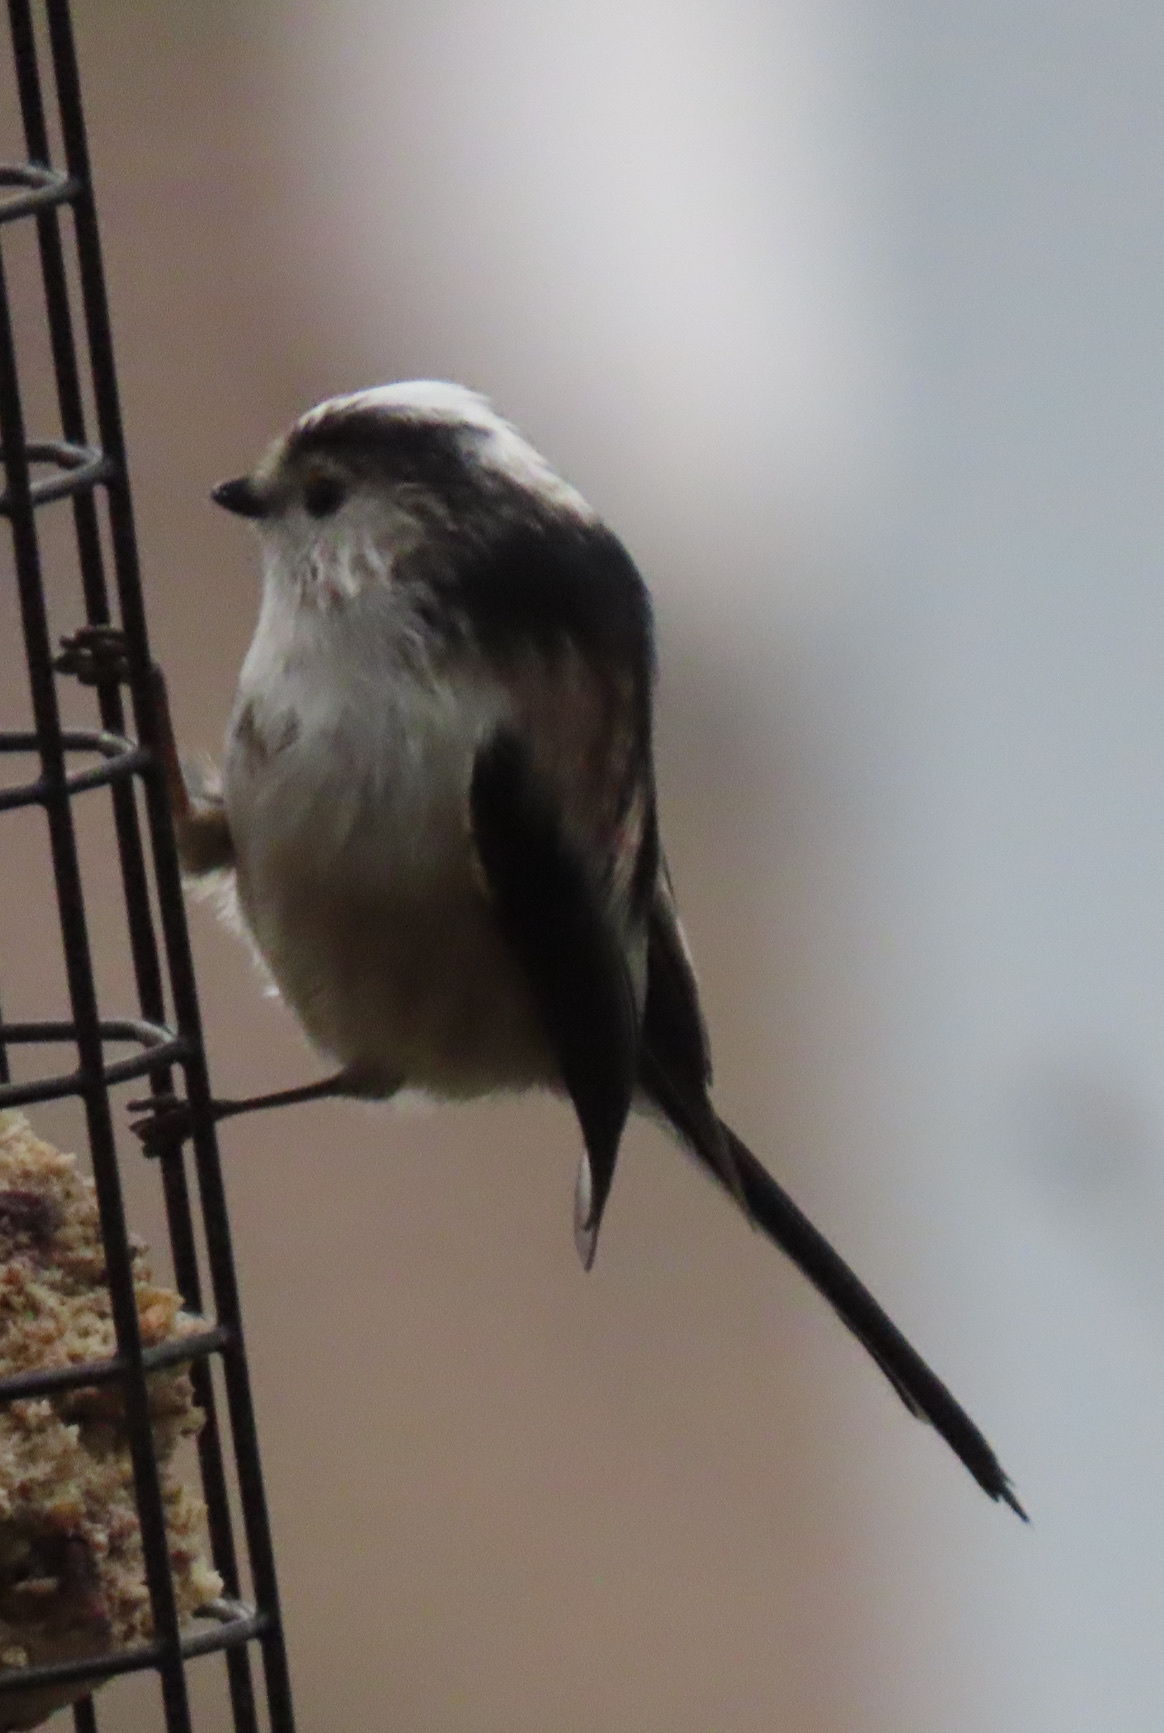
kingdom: Animalia
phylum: Chordata
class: Aves
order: Passeriformes
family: Aegithalidae
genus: Aegithalos
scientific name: Aegithalos caudatus
